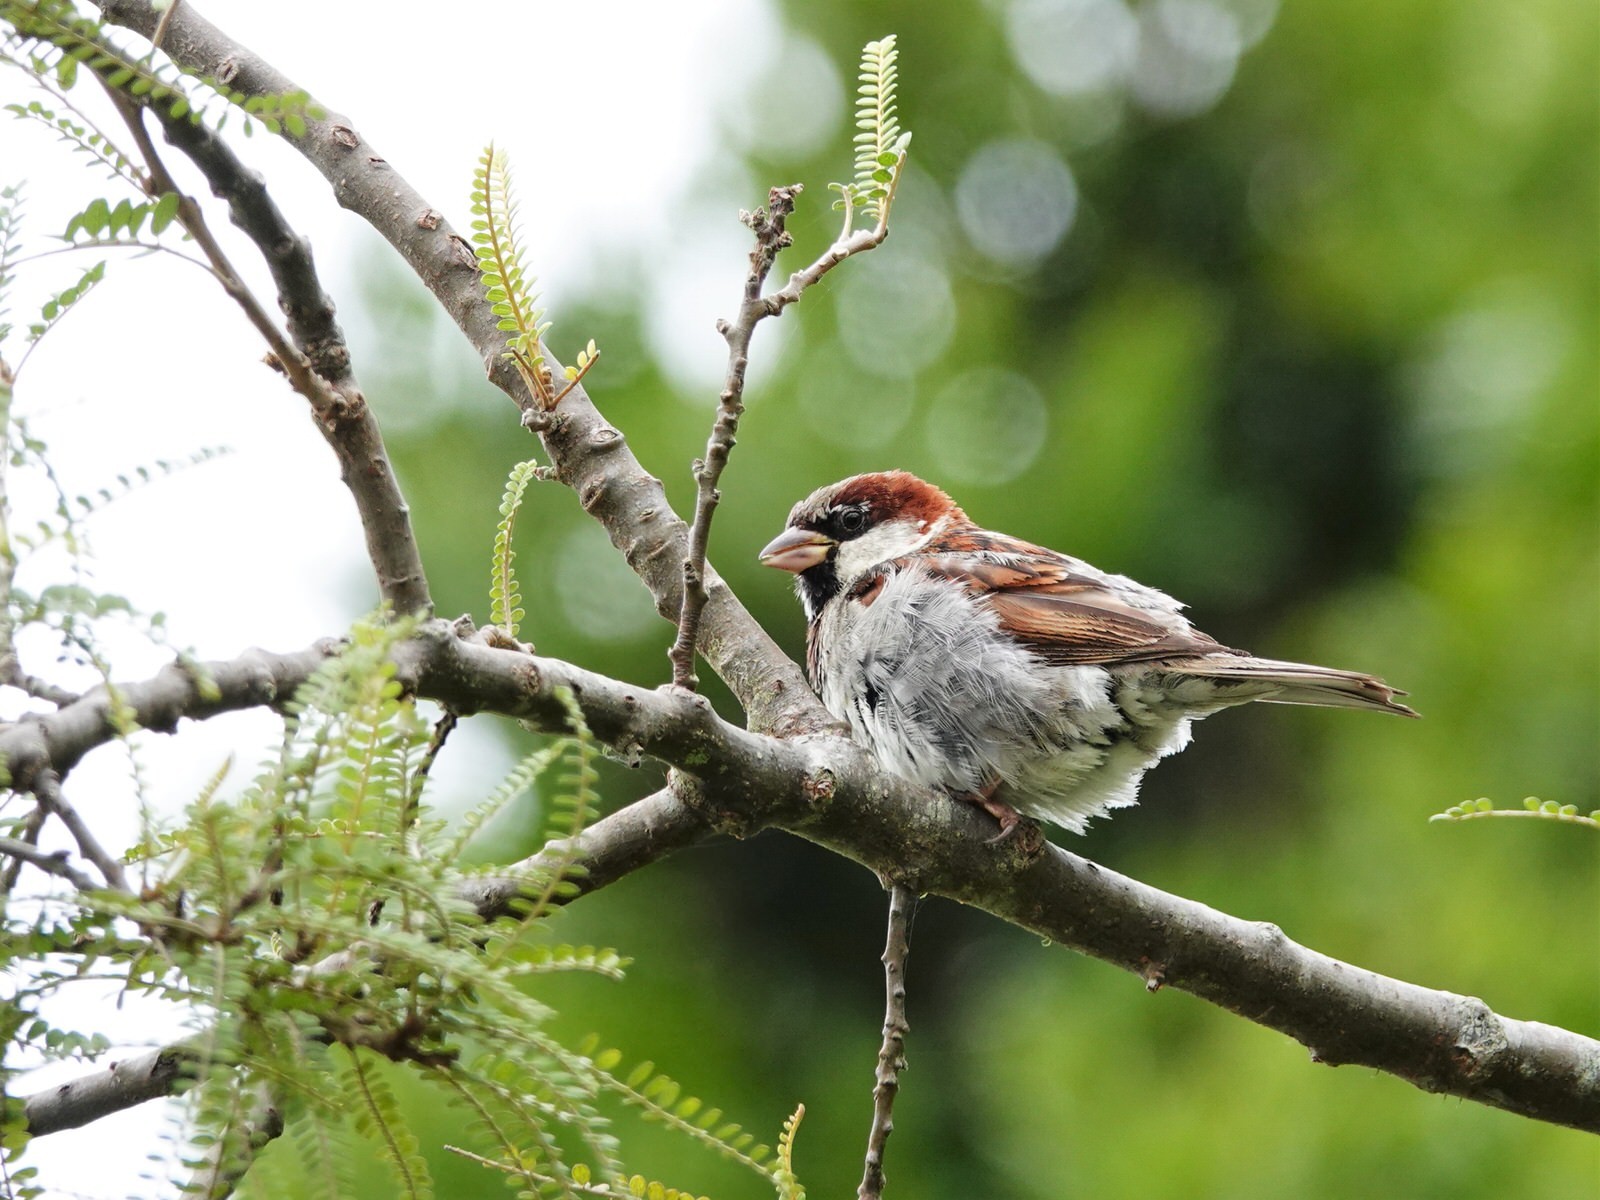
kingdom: Animalia
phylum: Chordata
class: Aves
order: Passeriformes
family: Passeridae
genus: Passer
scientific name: Passer domesticus
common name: House sparrow
